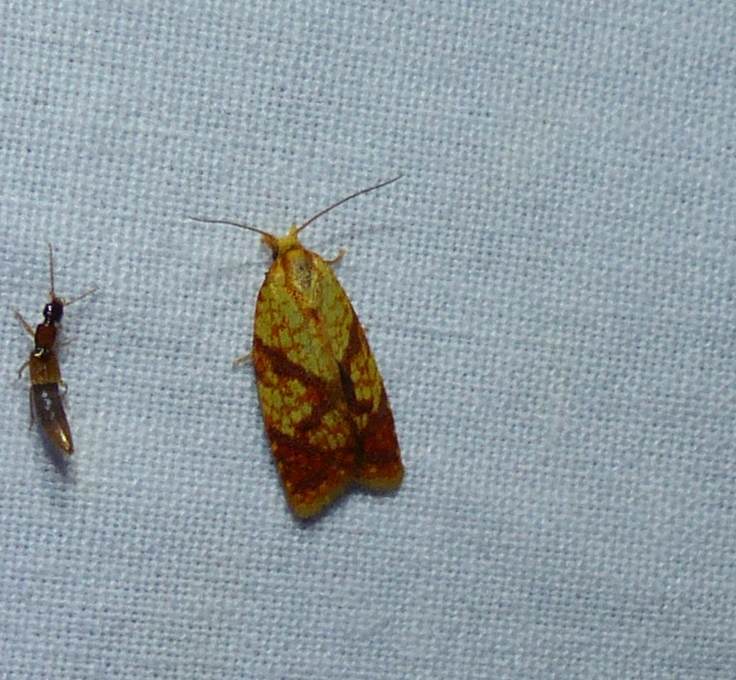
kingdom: Animalia
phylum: Arthropoda
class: Insecta
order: Lepidoptera
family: Tortricidae
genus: Sparganothis
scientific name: Sparganothis sulfureana
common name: Sparganothis fruitworm moth
